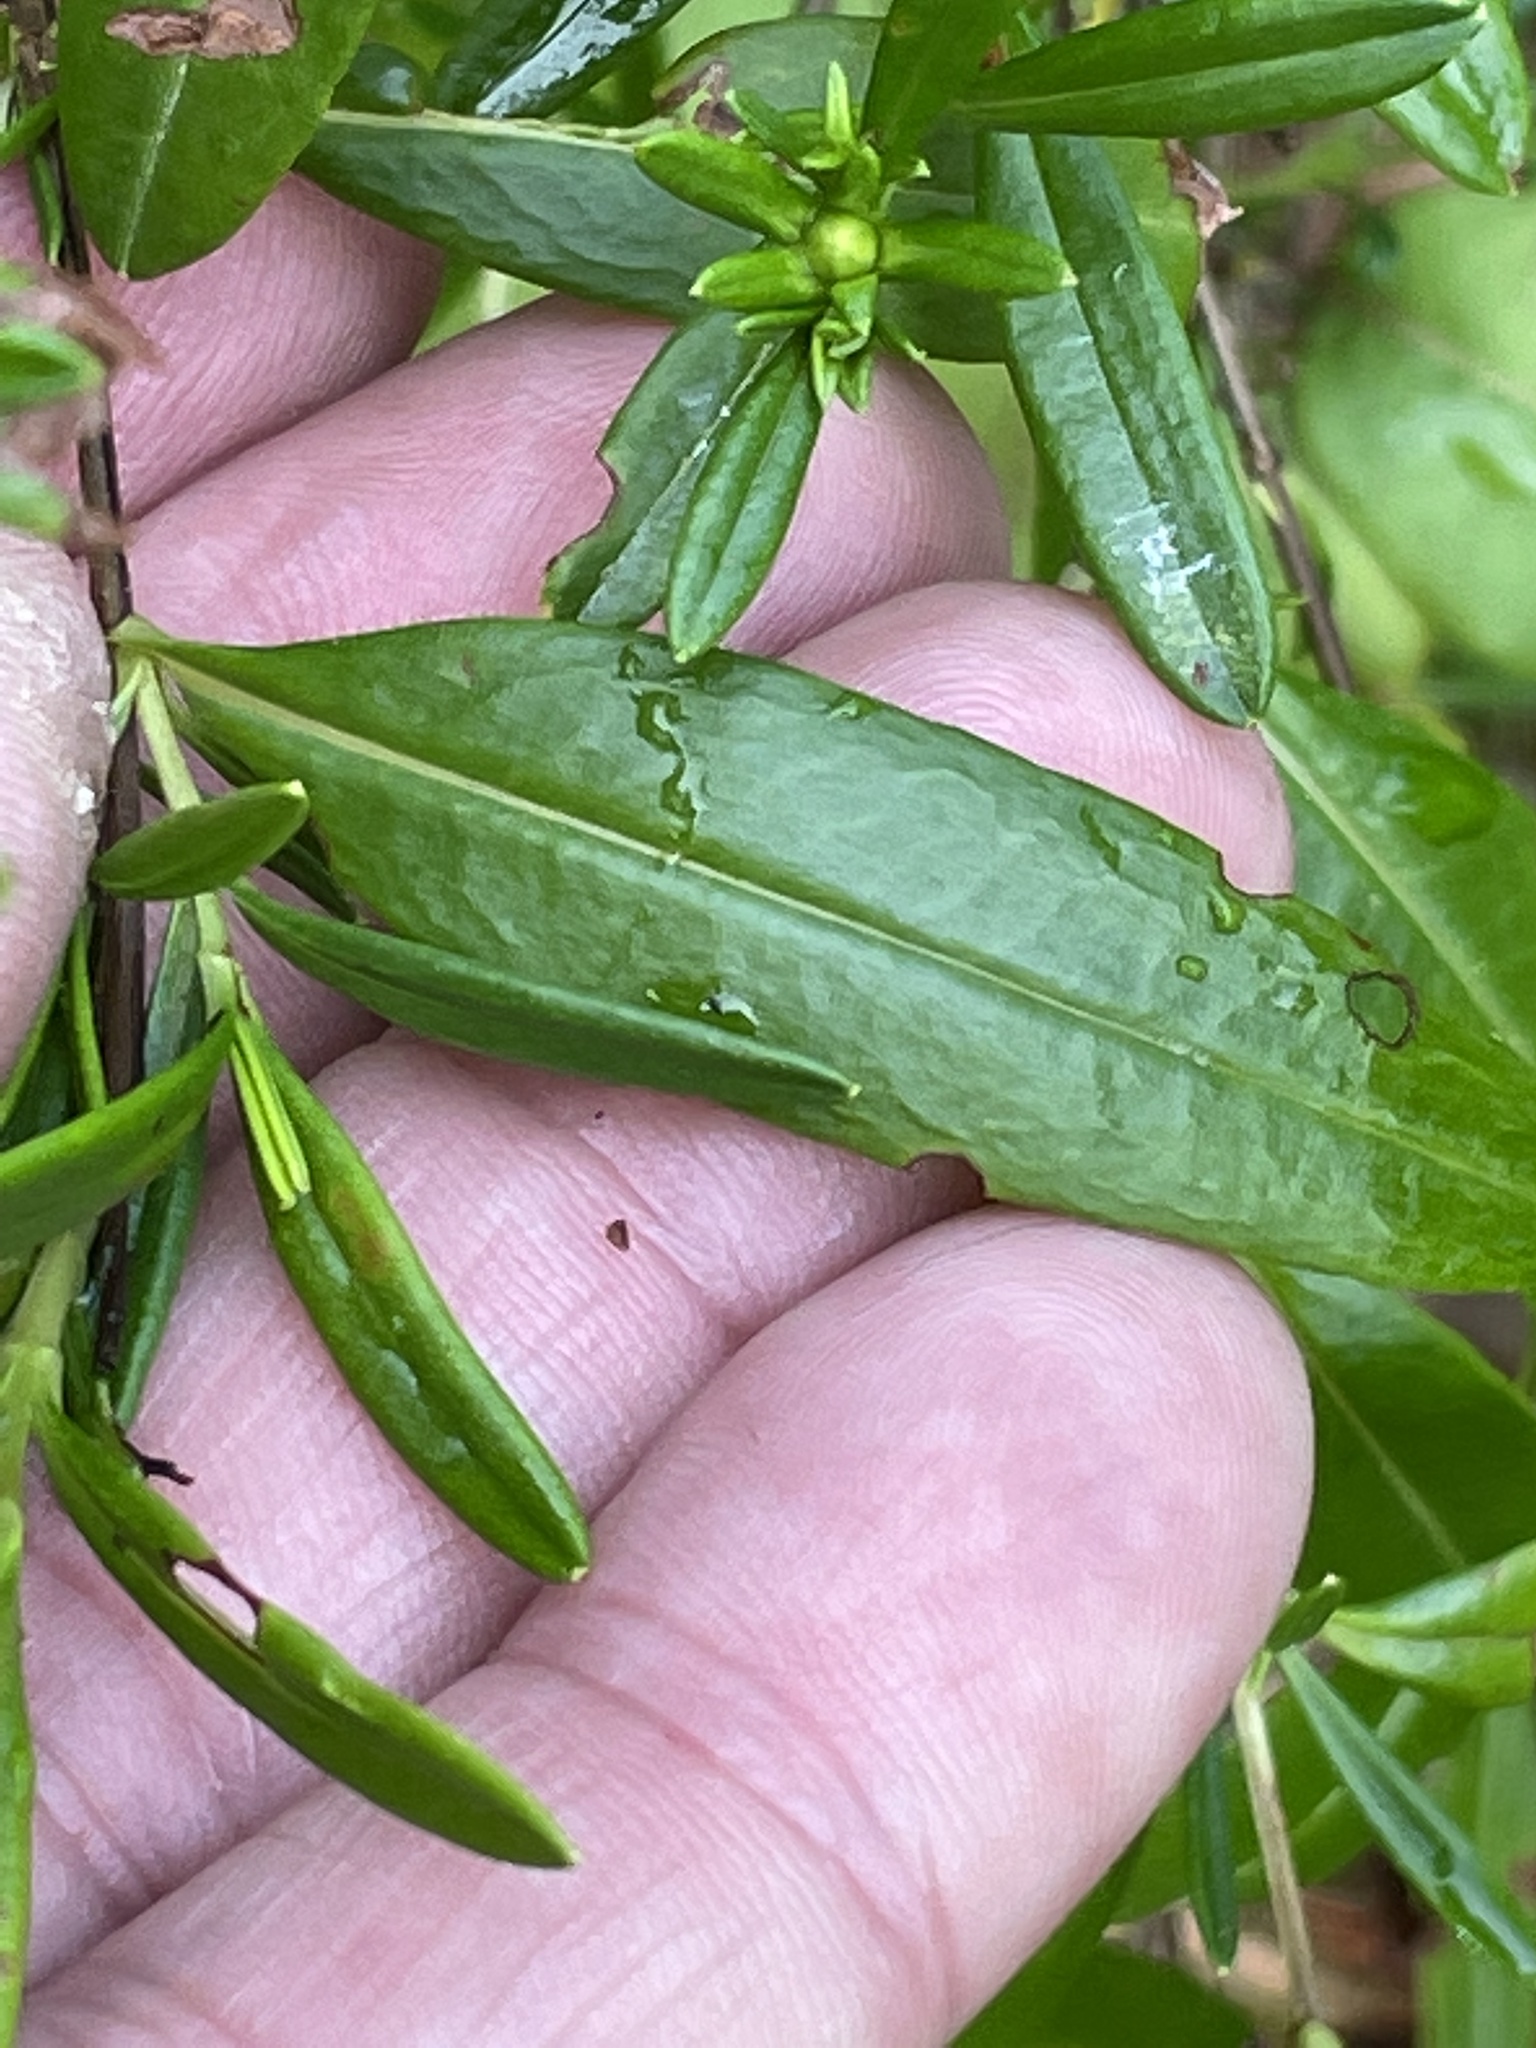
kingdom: Plantae
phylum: Tracheophyta
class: Magnoliopsida
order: Malpighiales
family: Hypericaceae
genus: Hypericum
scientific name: Hypericum densiflorum
